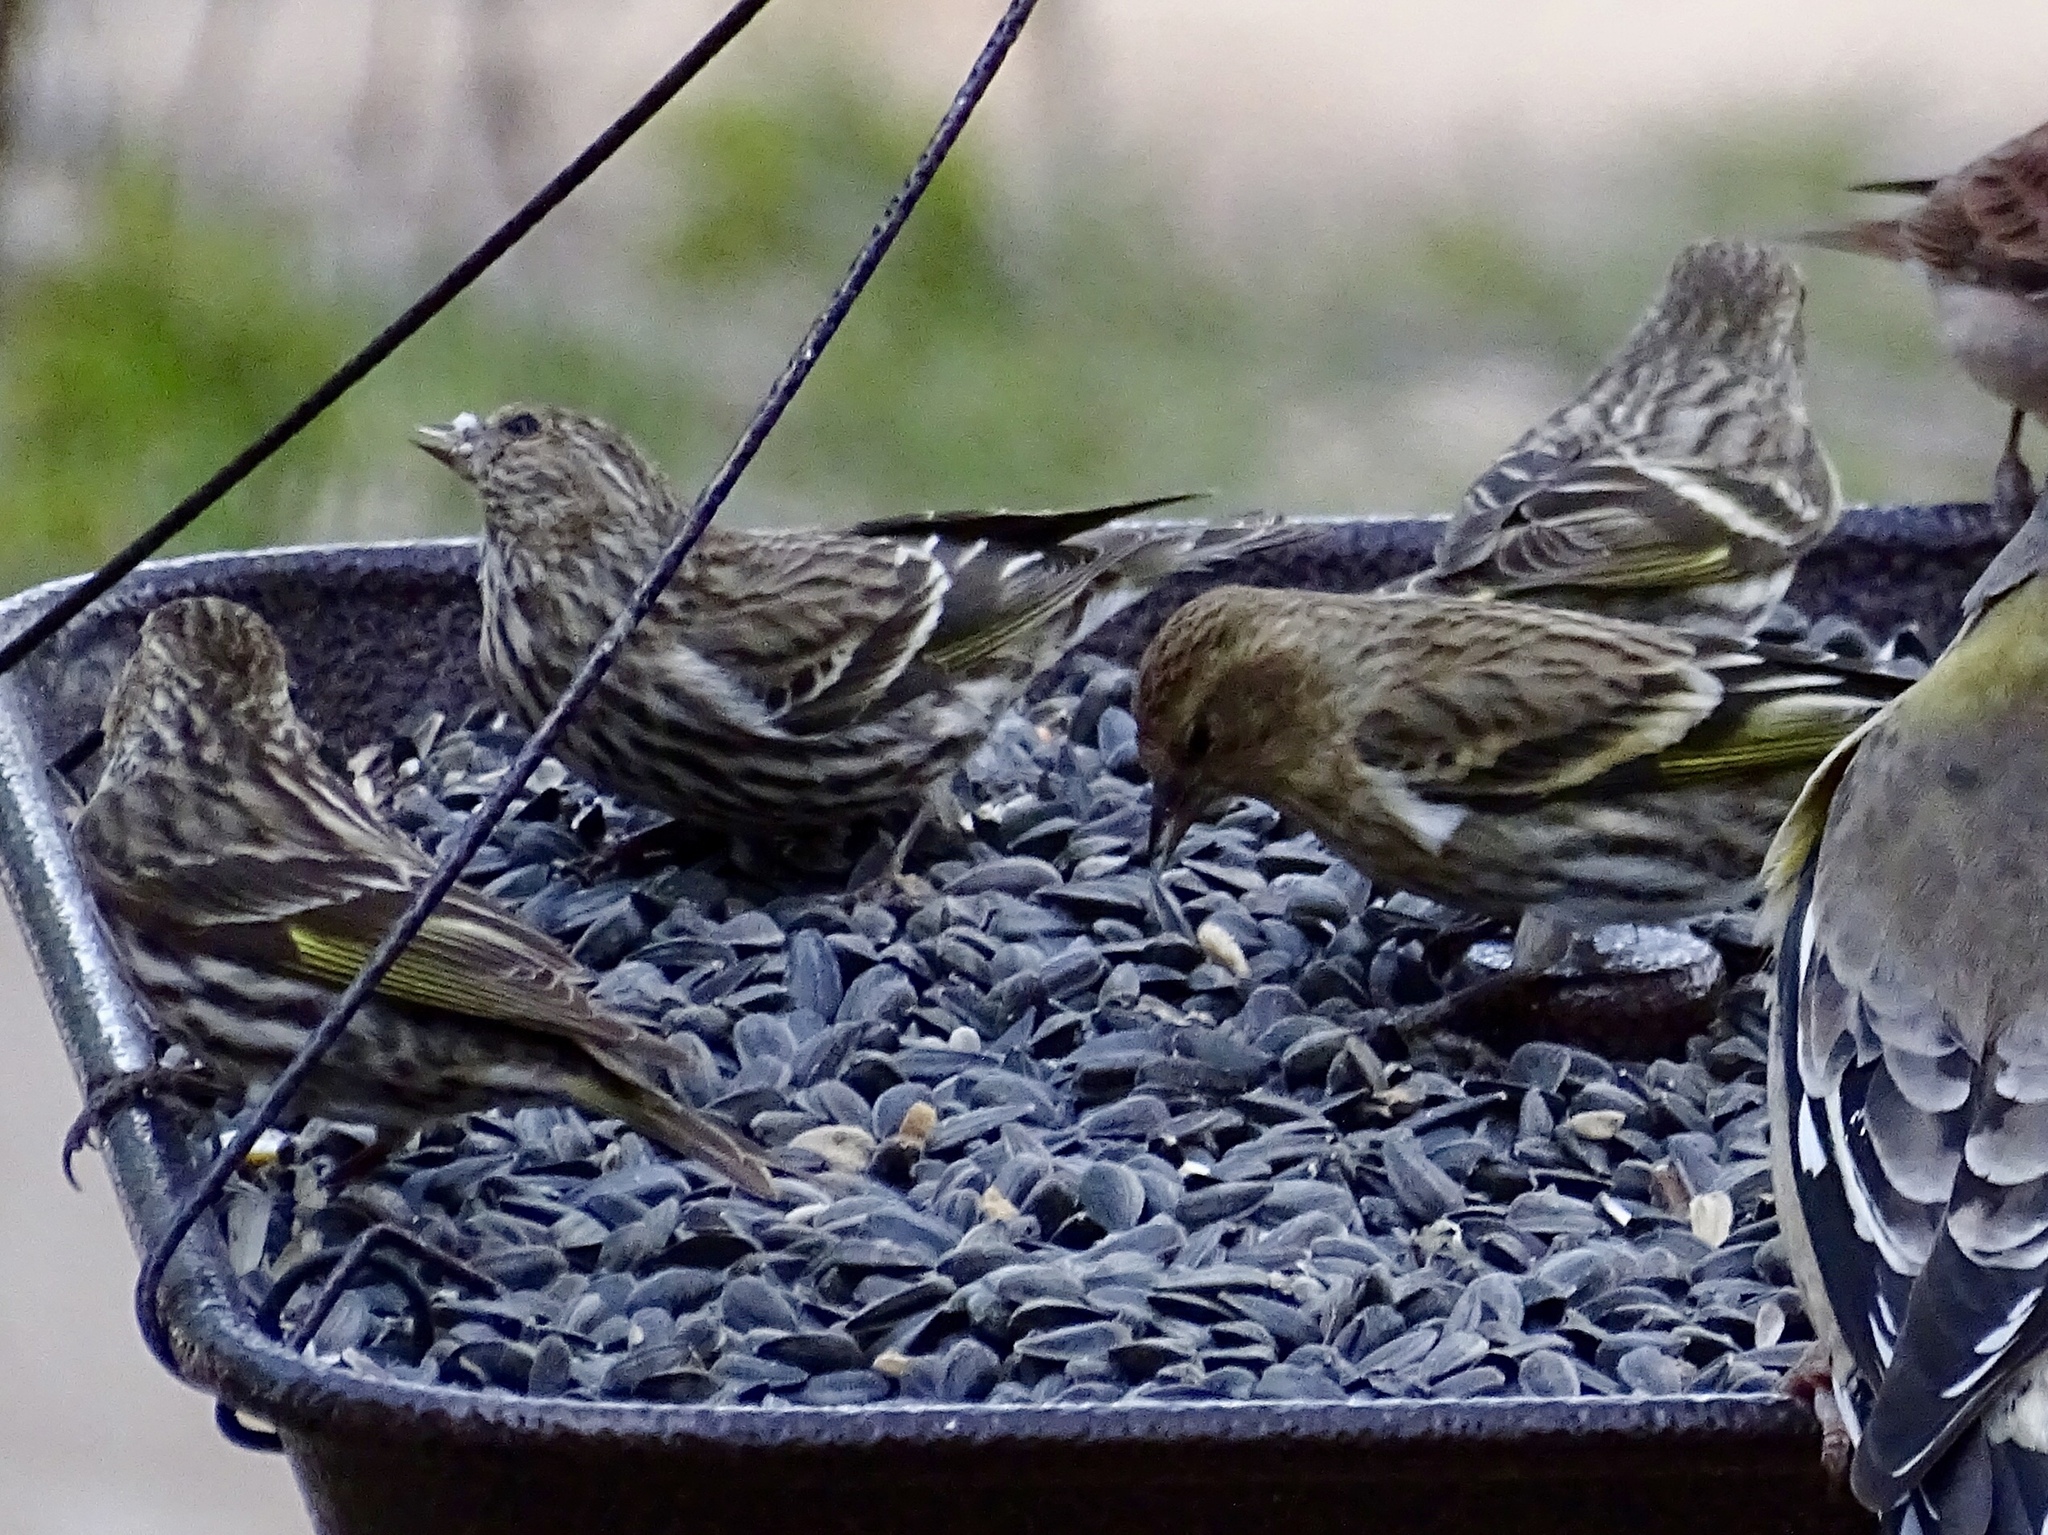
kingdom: Animalia
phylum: Chordata
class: Aves
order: Passeriformes
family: Fringillidae
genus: Spinus
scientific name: Spinus pinus
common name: Pine siskin
